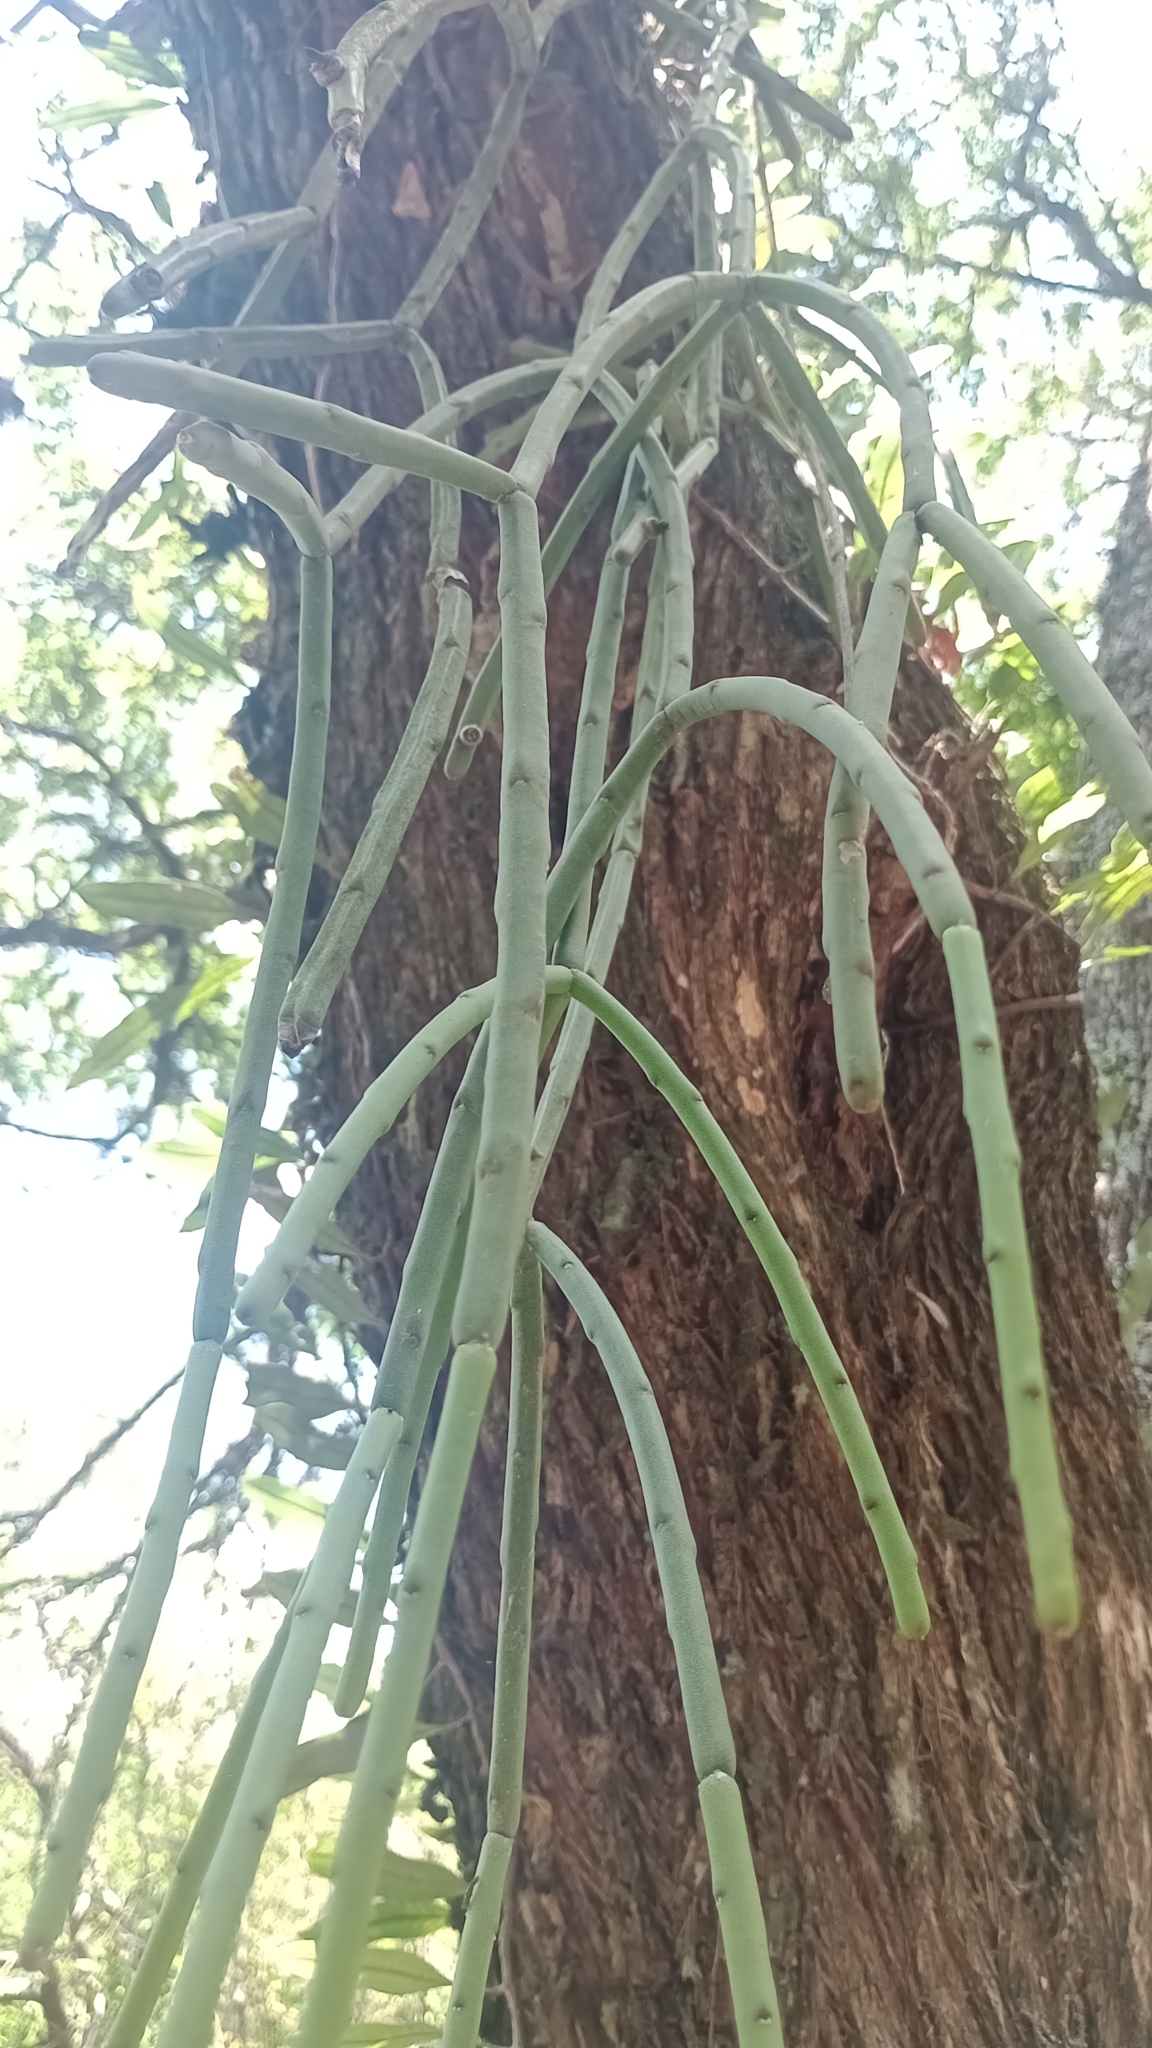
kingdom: Plantae
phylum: Tracheophyta
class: Magnoliopsida
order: Caryophyllales
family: Cactaceae
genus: Rhipsalis
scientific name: Rhipsalis floccosa
